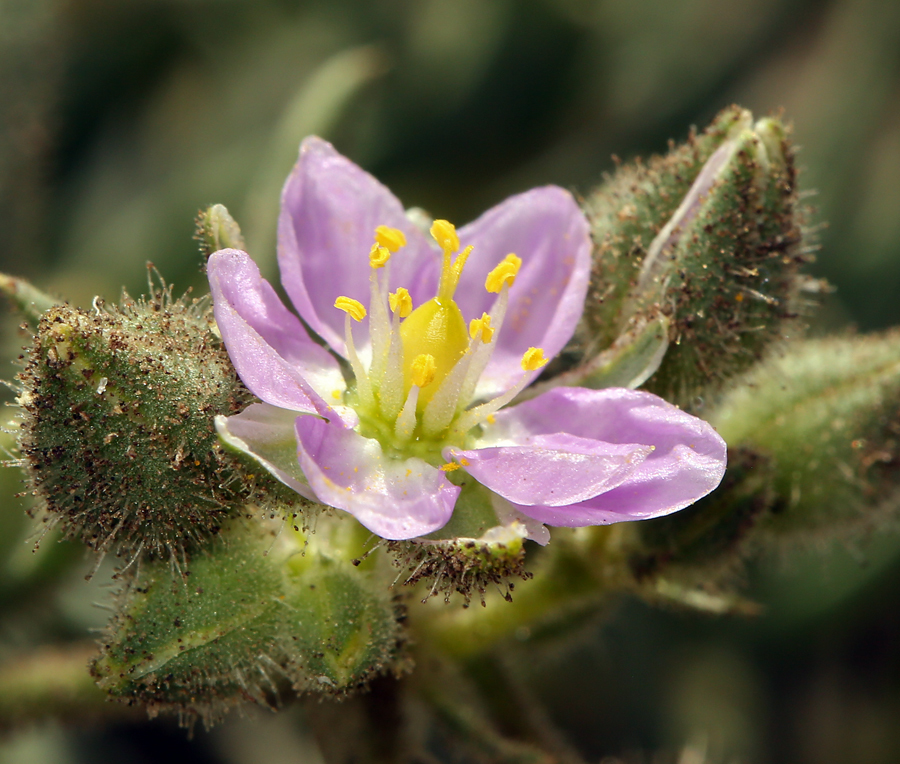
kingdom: Plantae
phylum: Tracheophyta
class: Magnoliopsida
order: Caryophyllales
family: Caryophyllaceae
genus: Spergularia
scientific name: Spergularia macrotheca
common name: Beach sand-spurrey
